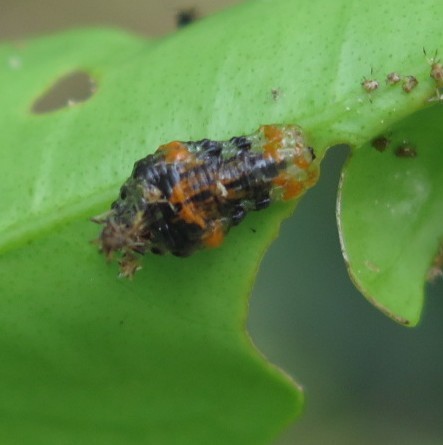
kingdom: Animalia
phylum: Arthropoda
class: Insecta
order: Diptera
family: Syrphidae
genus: Ocyptamus
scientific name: Ocyptamus gastrostactus
